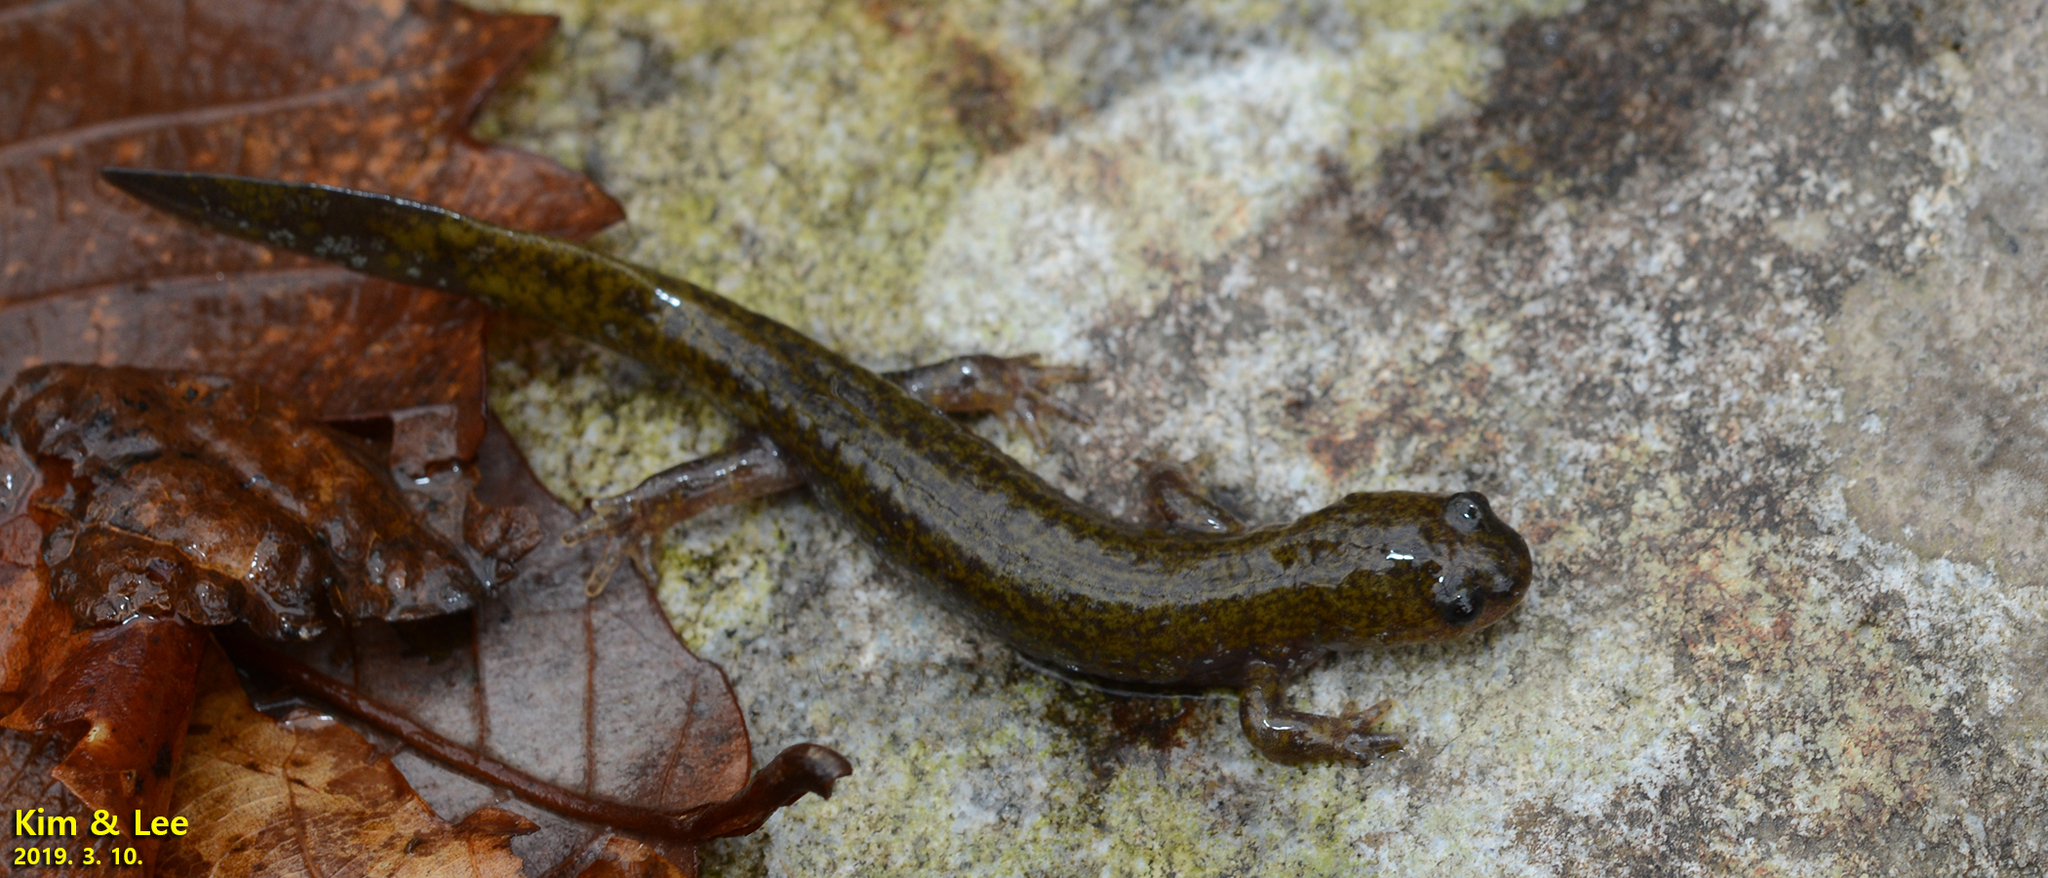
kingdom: Animalia
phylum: Chordata
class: Amphibia
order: Caudata
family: Hynobiidae
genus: Hynobius
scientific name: Hynobius unisacculus
